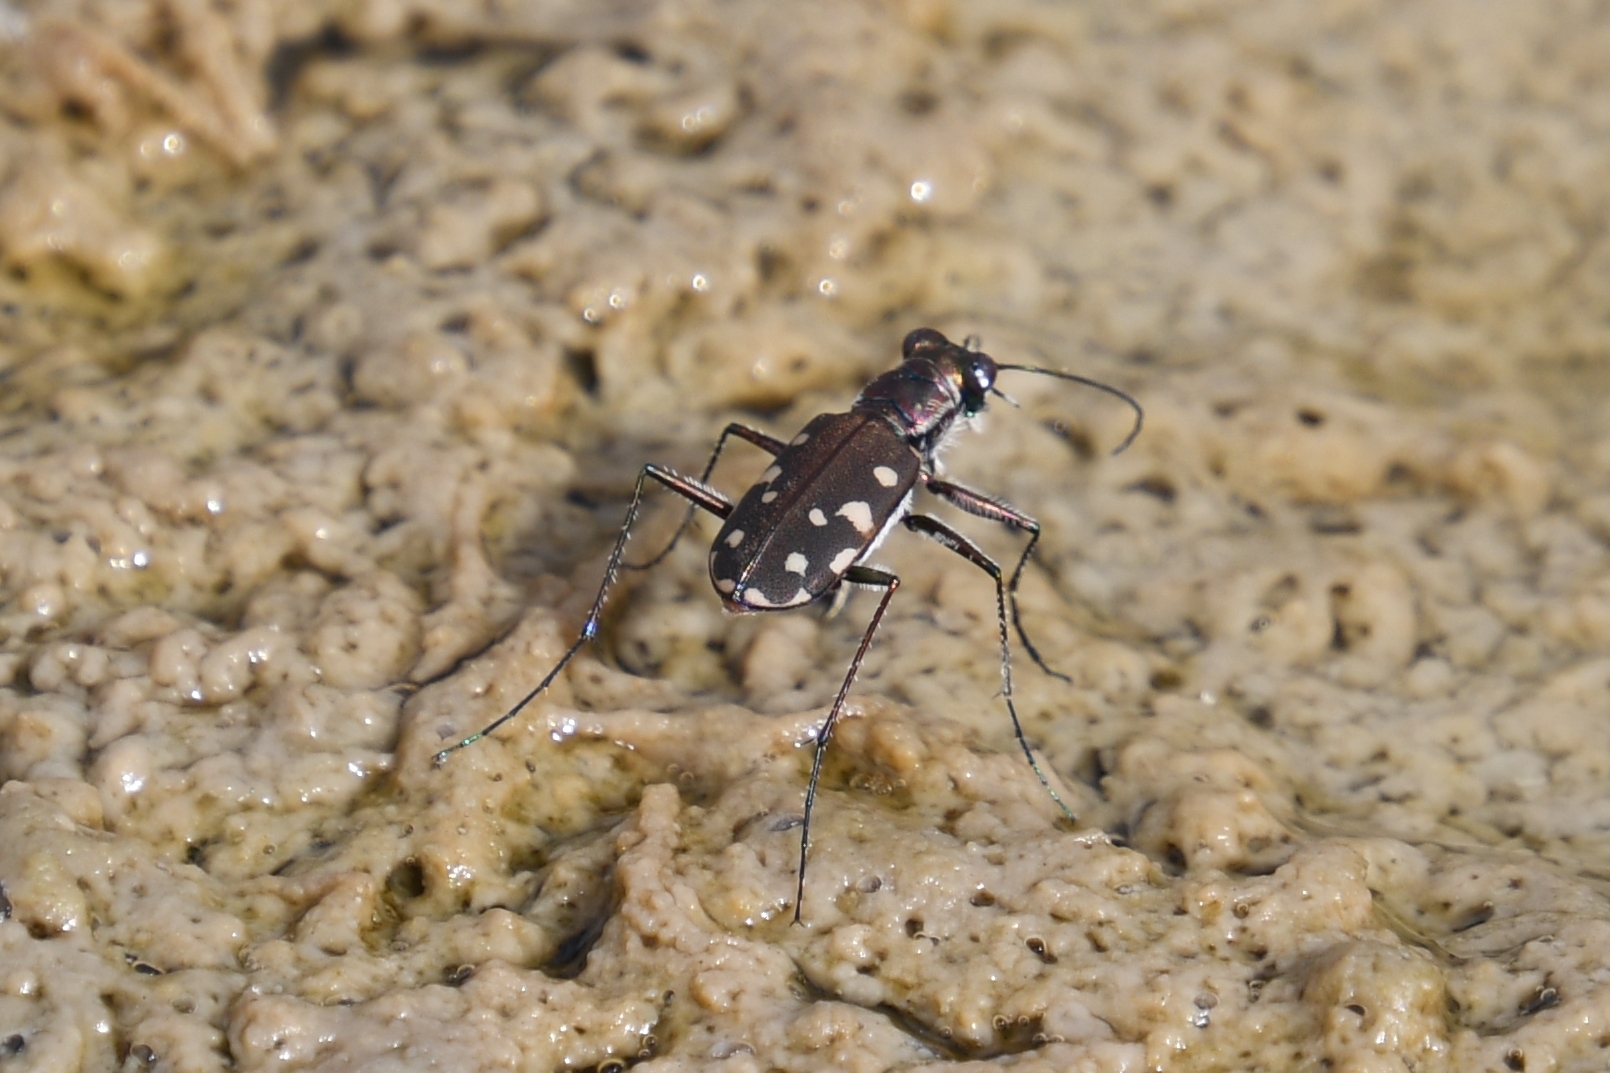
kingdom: Animalia
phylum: Arthropoda
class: Insecta
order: Coleoptera
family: Carabidae
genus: Cicindela
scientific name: Cicindela sedecimpunctata
